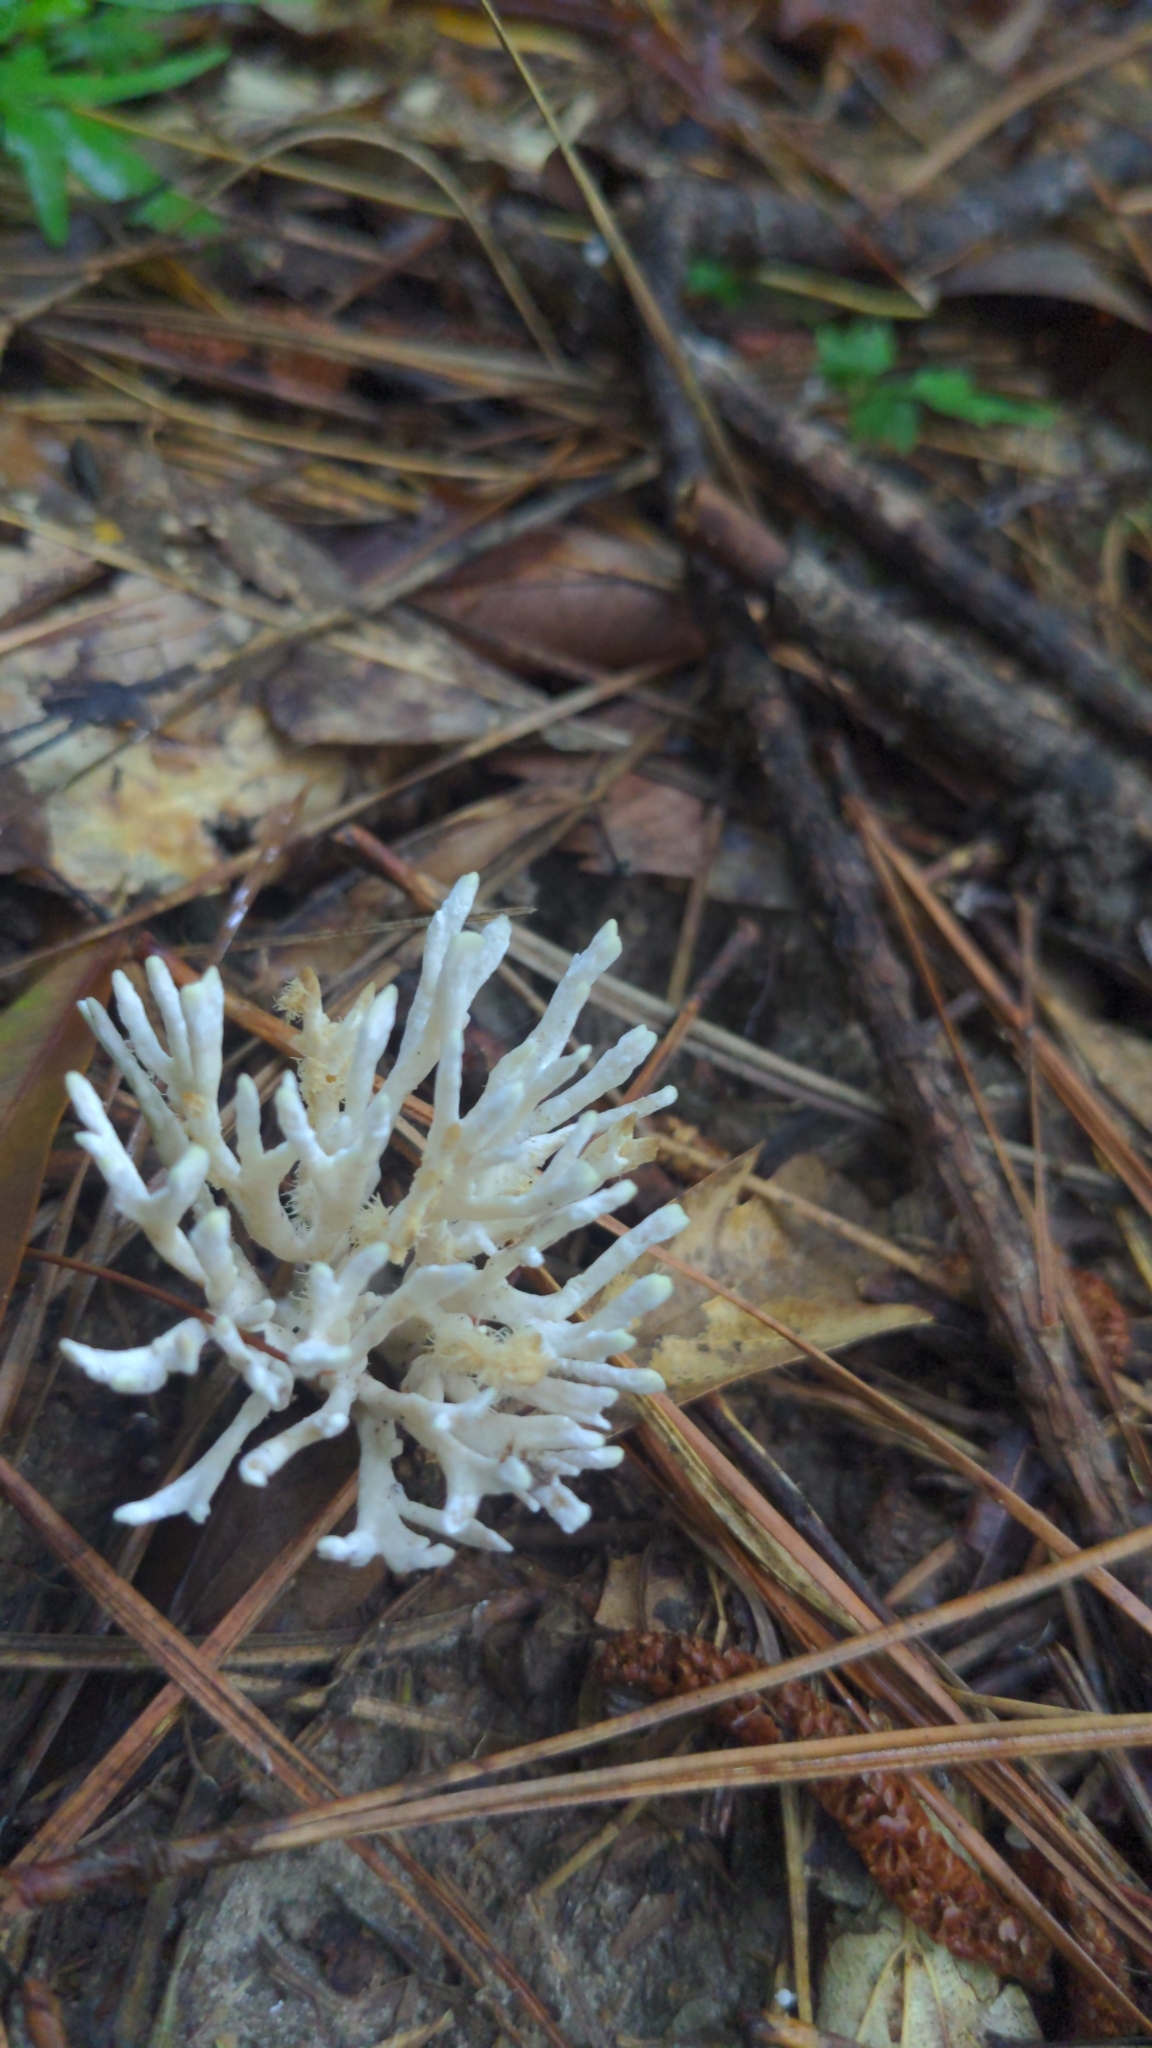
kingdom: Fungi
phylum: Basidiomycota
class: Agaricomycetes
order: Sebacinales
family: Sebacinaceae
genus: Sebacina
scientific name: Sebacina schweinitzii
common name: Jellied false coral fungus
